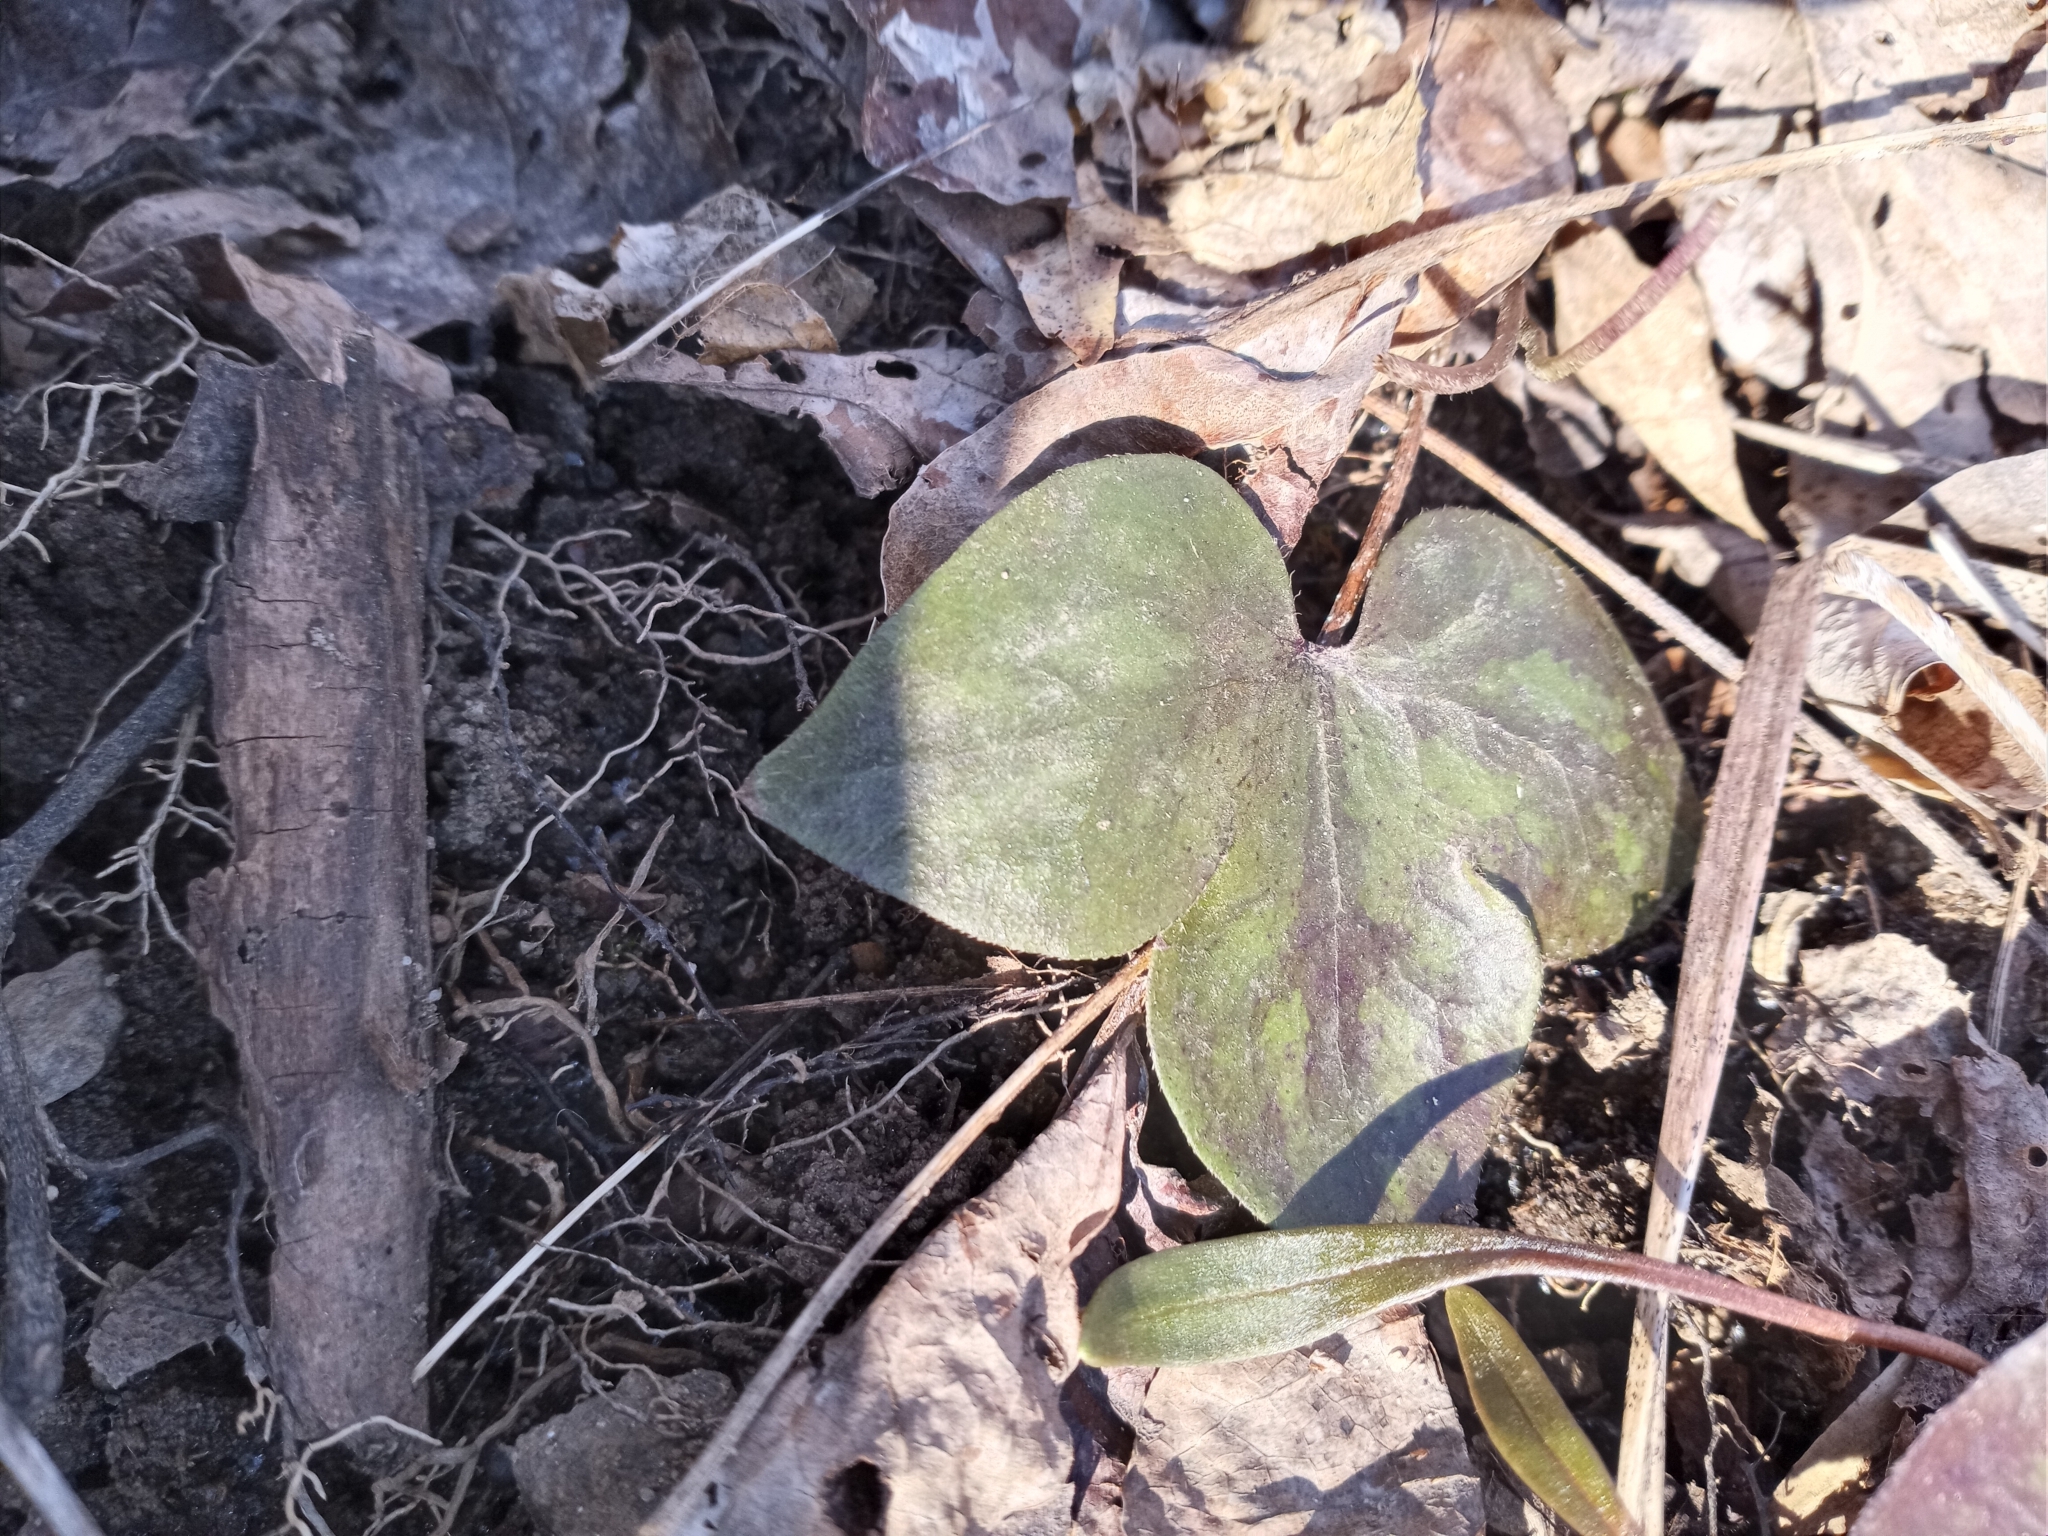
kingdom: Plantae
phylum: Tracheophyta
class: Magnoliopsida
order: Ranunculales
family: Ranunculaceae
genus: Hepatica
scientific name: Hepatica acutiloba
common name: Sharp-lobed hepatica
